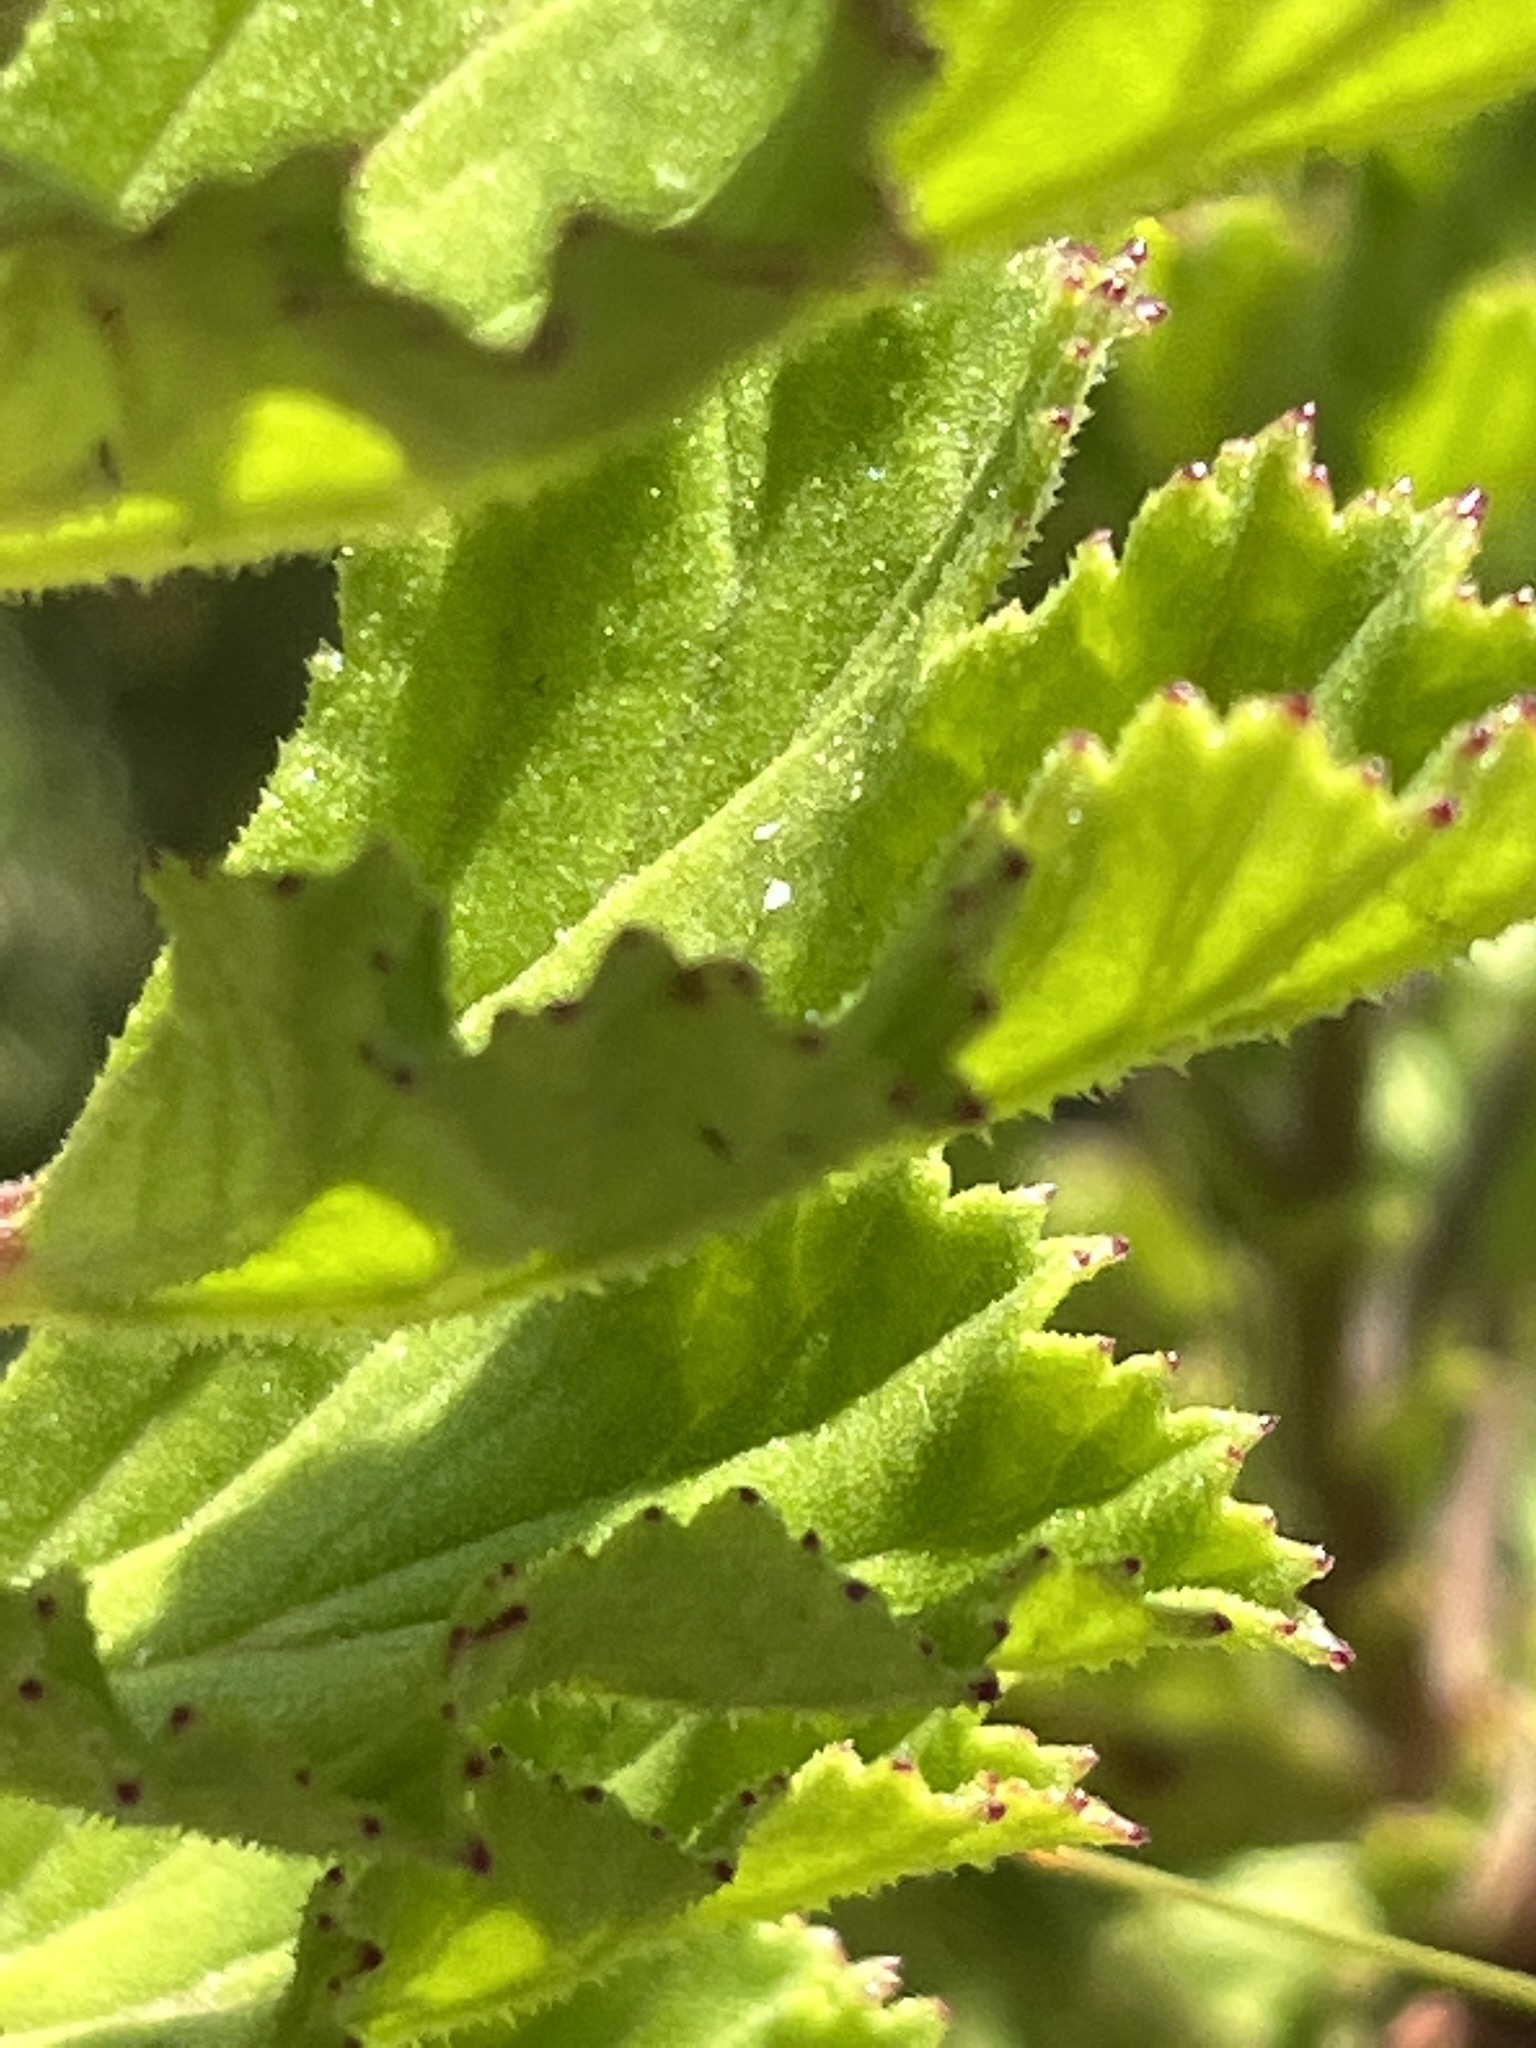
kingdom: Plantae
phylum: Tracheophyta
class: Magnoliopsida
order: Geraniales
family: Geraniaceae
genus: Pelargonium
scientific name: Pelargonium hermaniifolium
